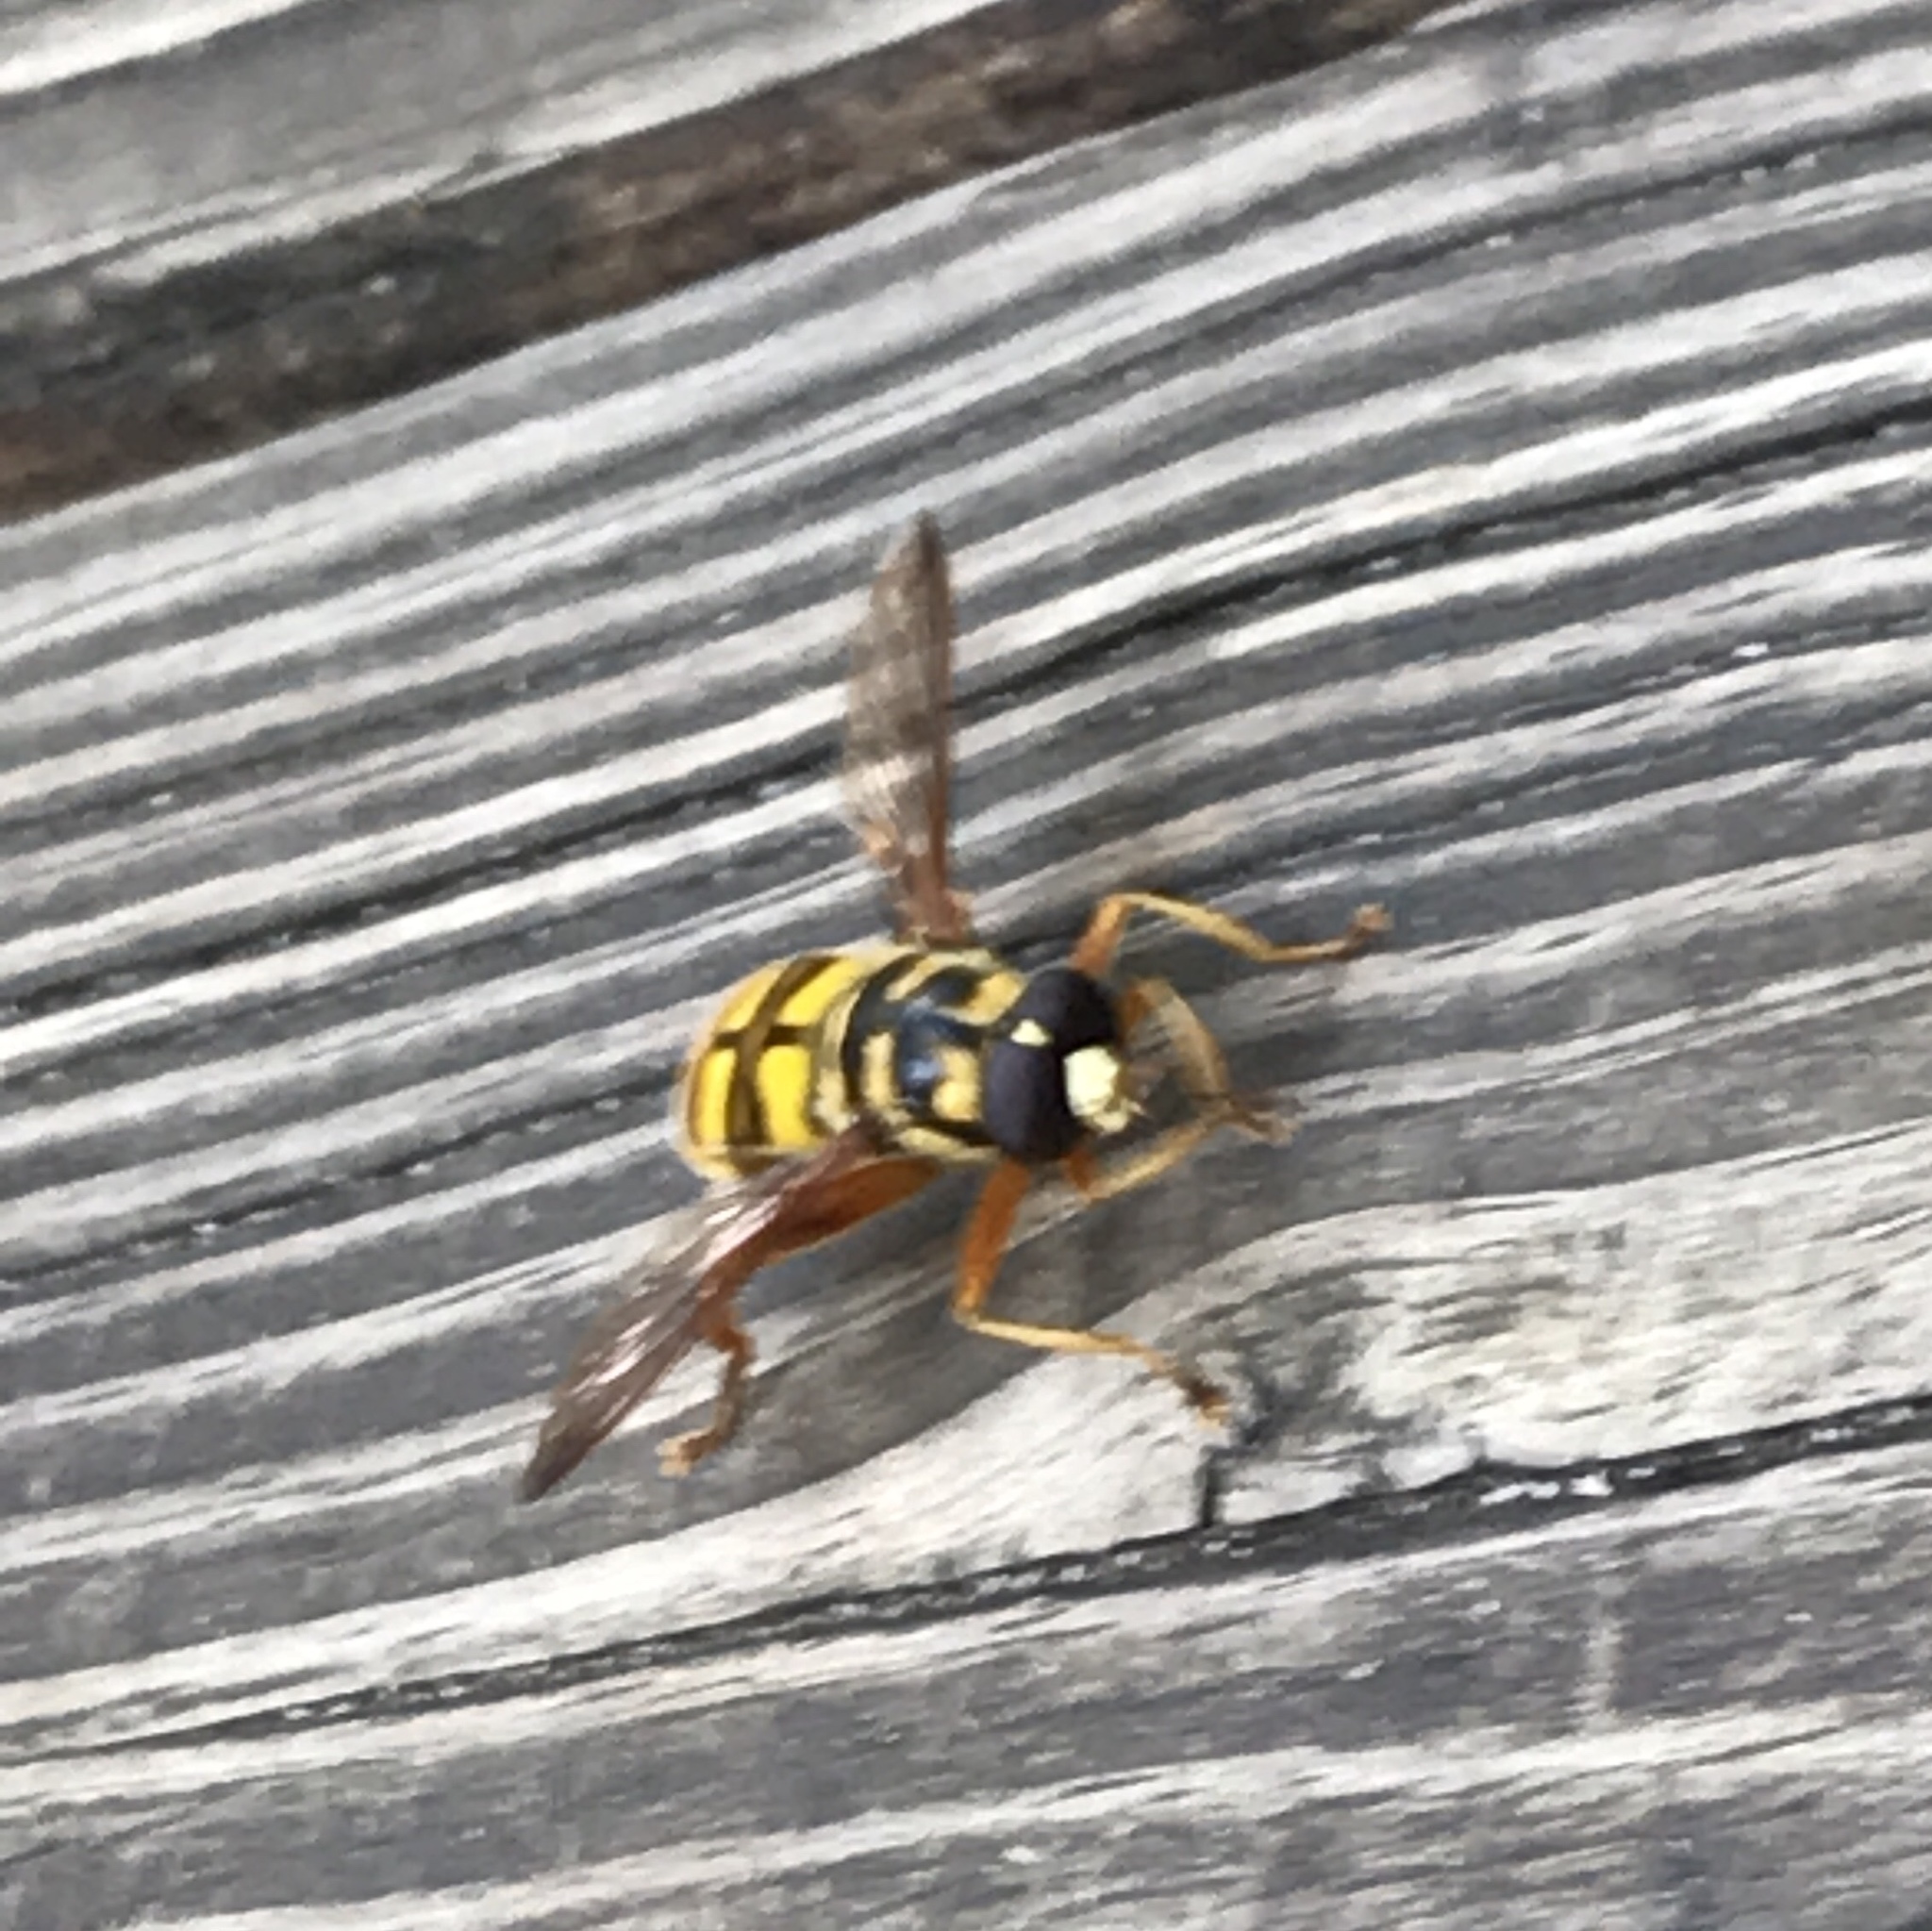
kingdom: Animalia
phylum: Arthropoda
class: Insecta
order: Diptera
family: Syrphidae
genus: Milesia
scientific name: Milesia virginiensis
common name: Virginia giant
